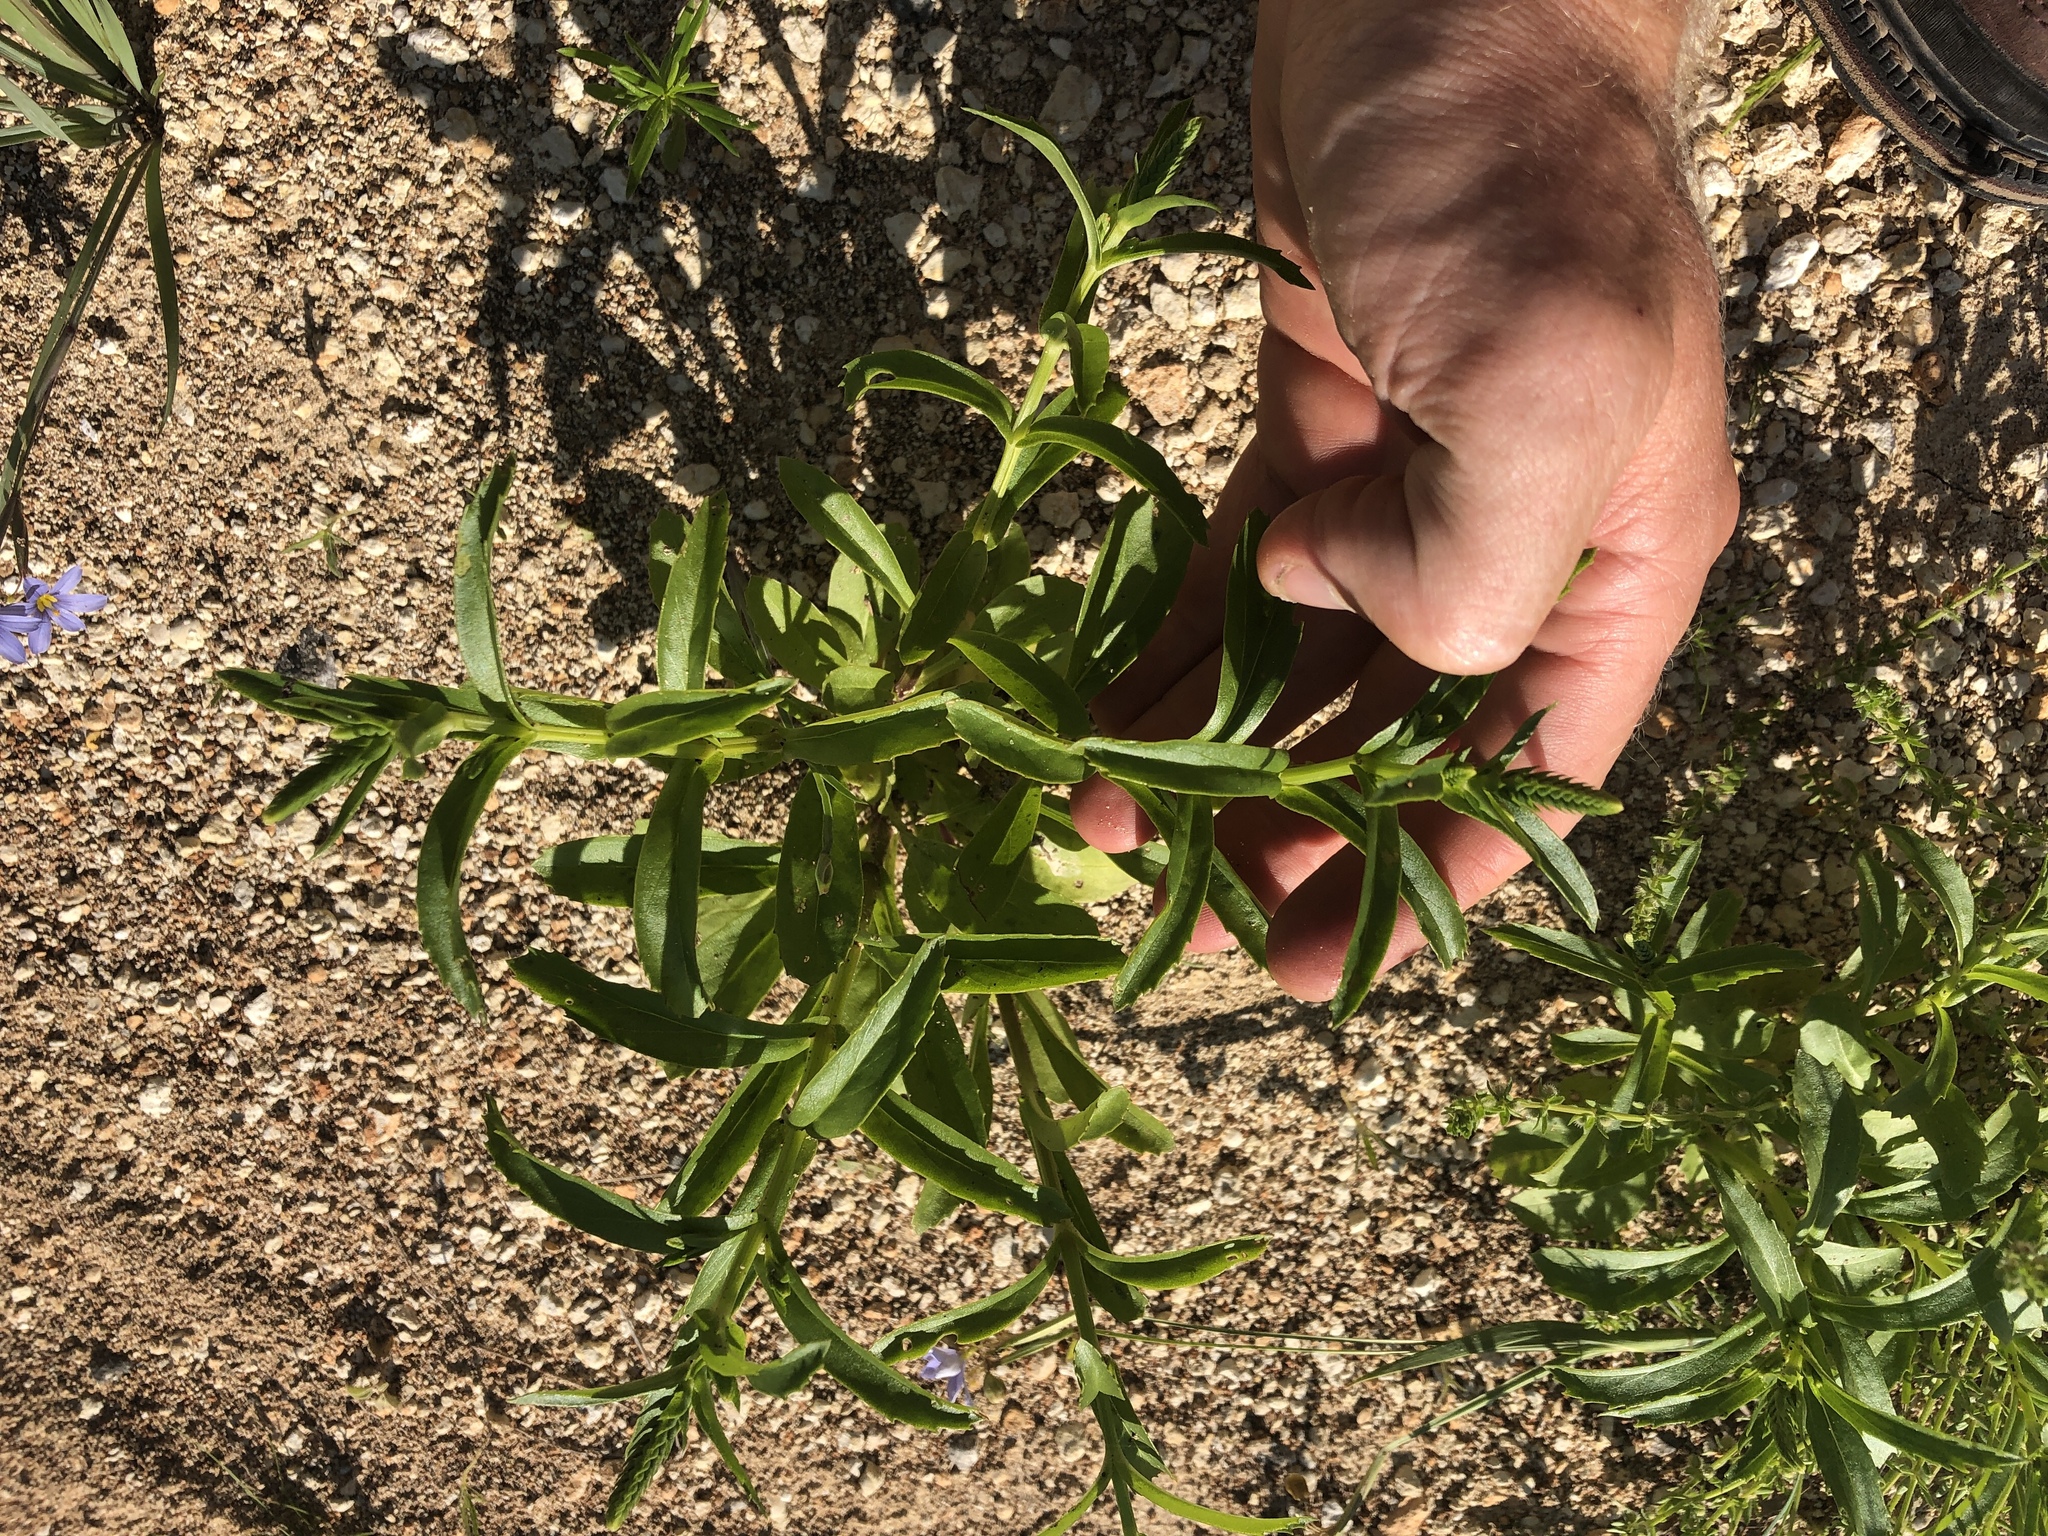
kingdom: Plantae
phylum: Tracheophyta
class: Magnoliopsida
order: Lamiales
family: Lamiaceae
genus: Warnockia
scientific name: Warnockia scutellarioides
